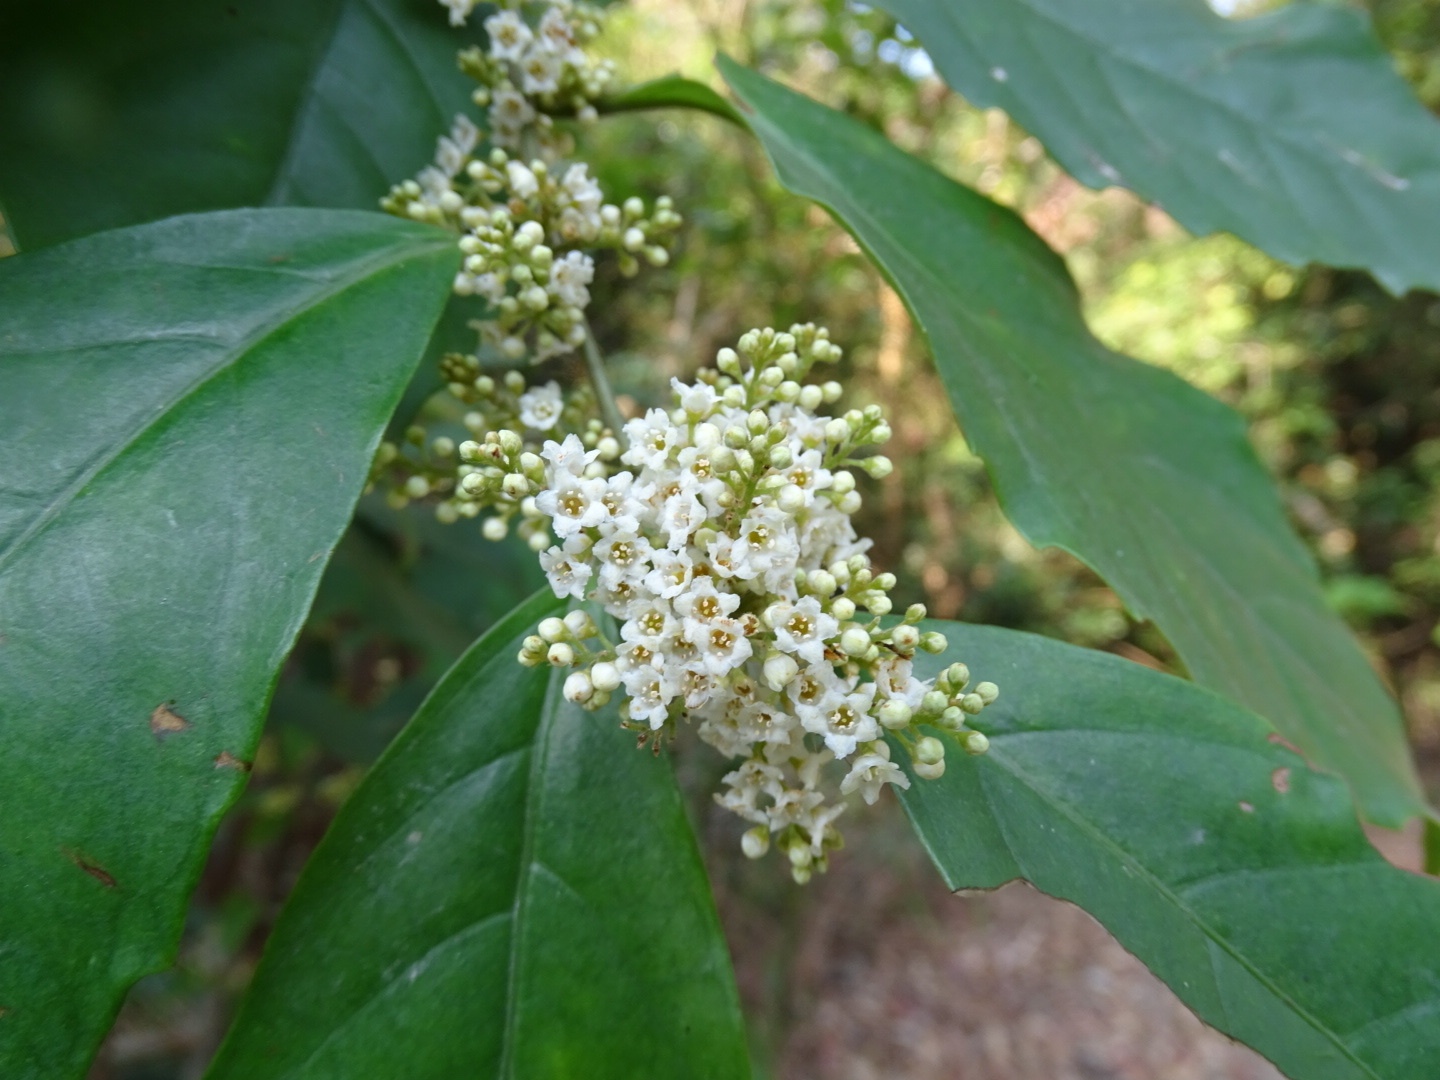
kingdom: Plantae
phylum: Tracheophyta
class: Magnoliopsida
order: Ericales
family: Primulaceae
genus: Maesa
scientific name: Maesa perlaria
